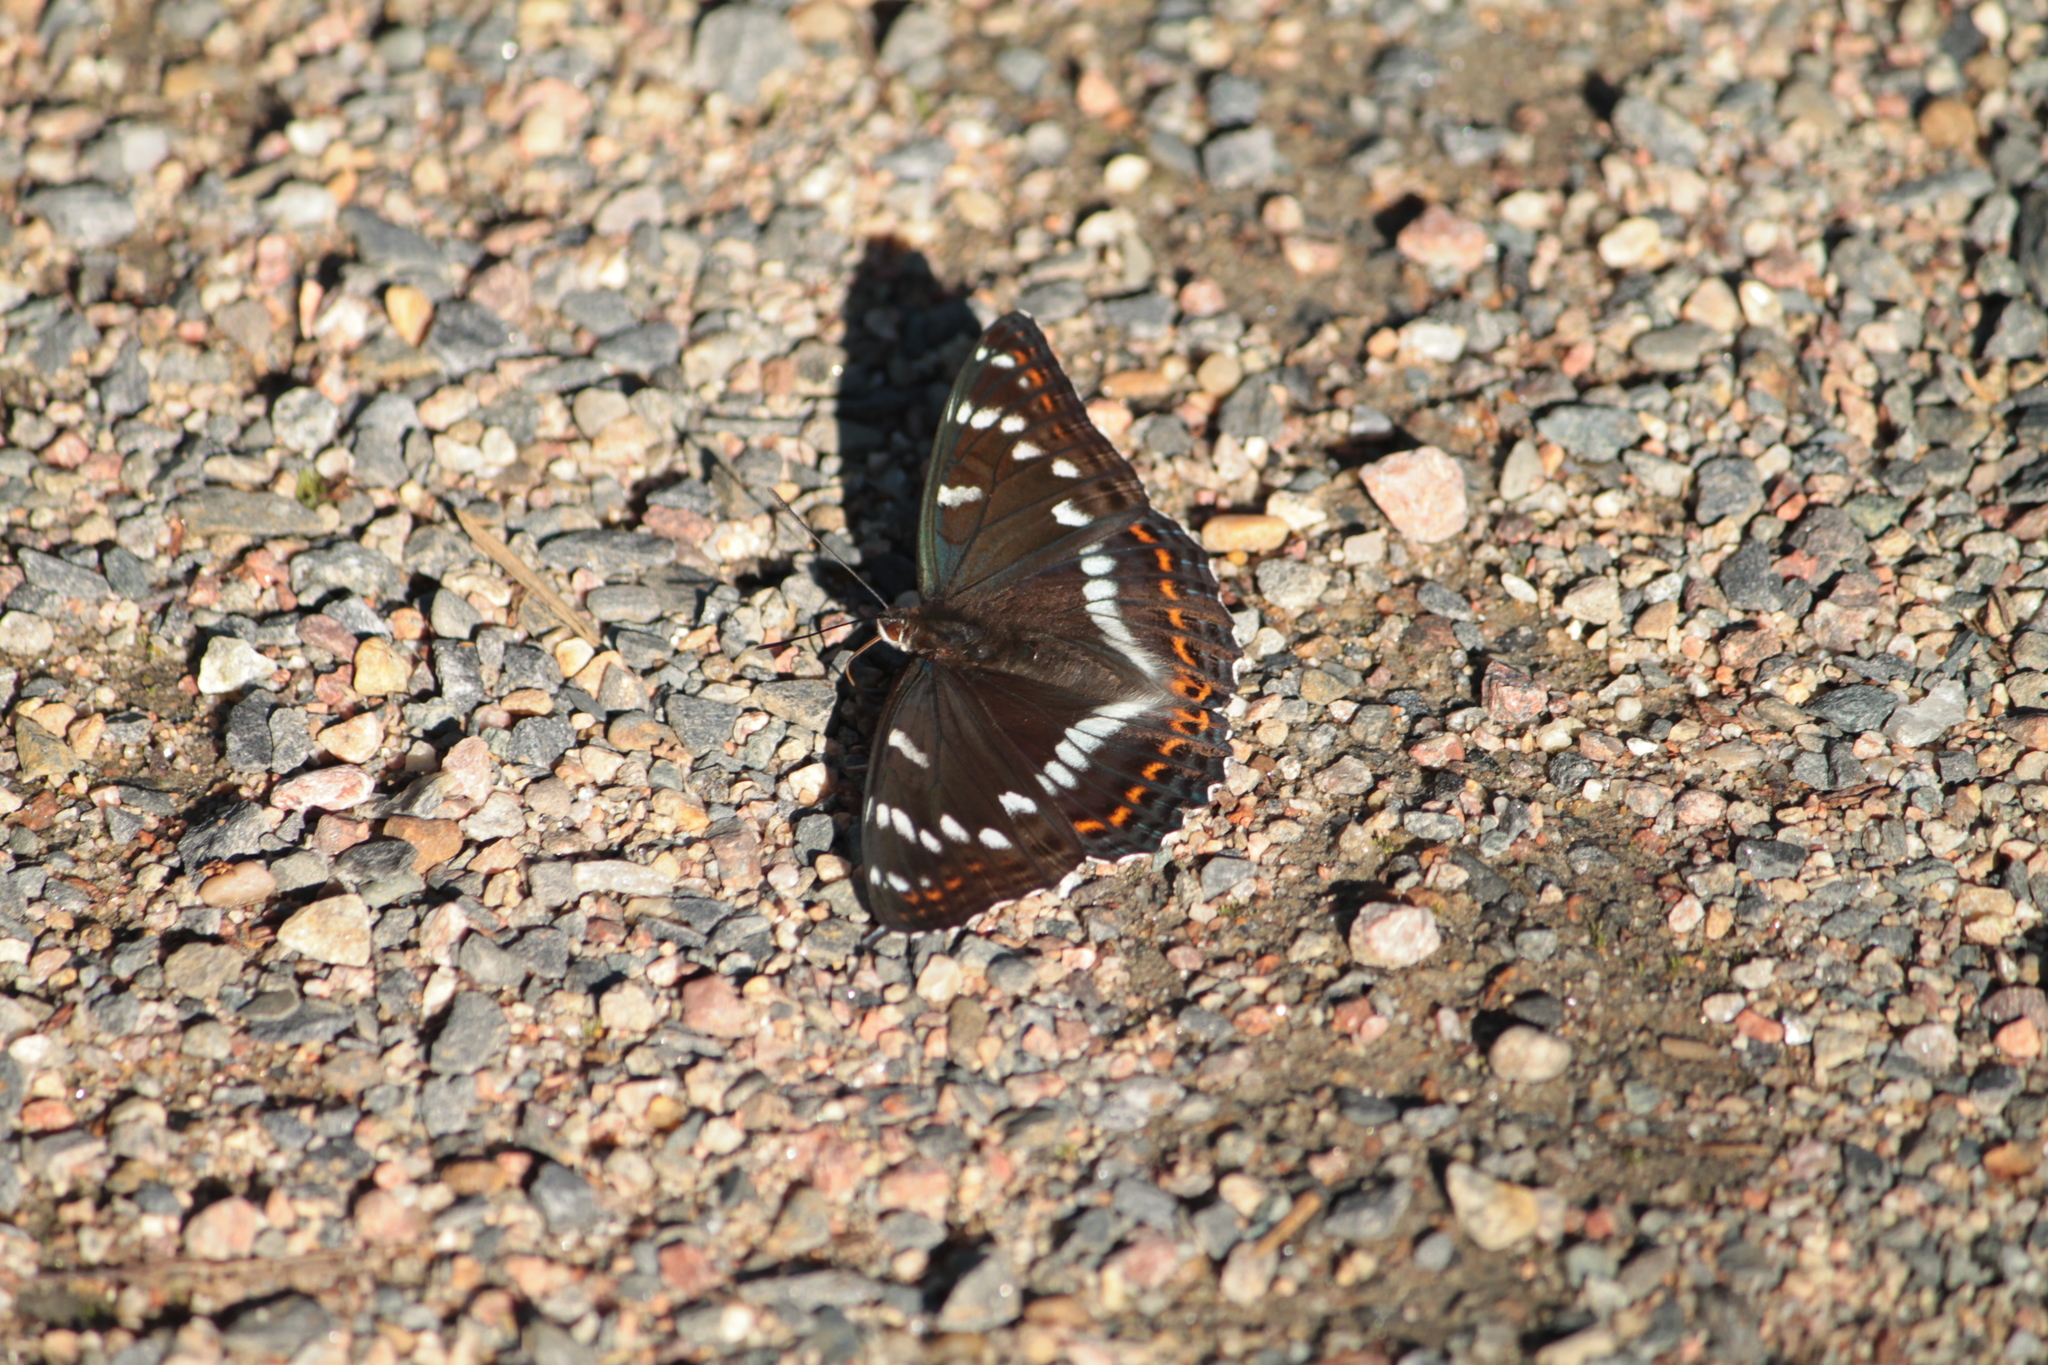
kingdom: Animalia
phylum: Arthropoda
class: Insecta
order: Lepidoptera
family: Nymphalidae
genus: Limenitis
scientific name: Limenitis populi
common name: Poplar admiral
